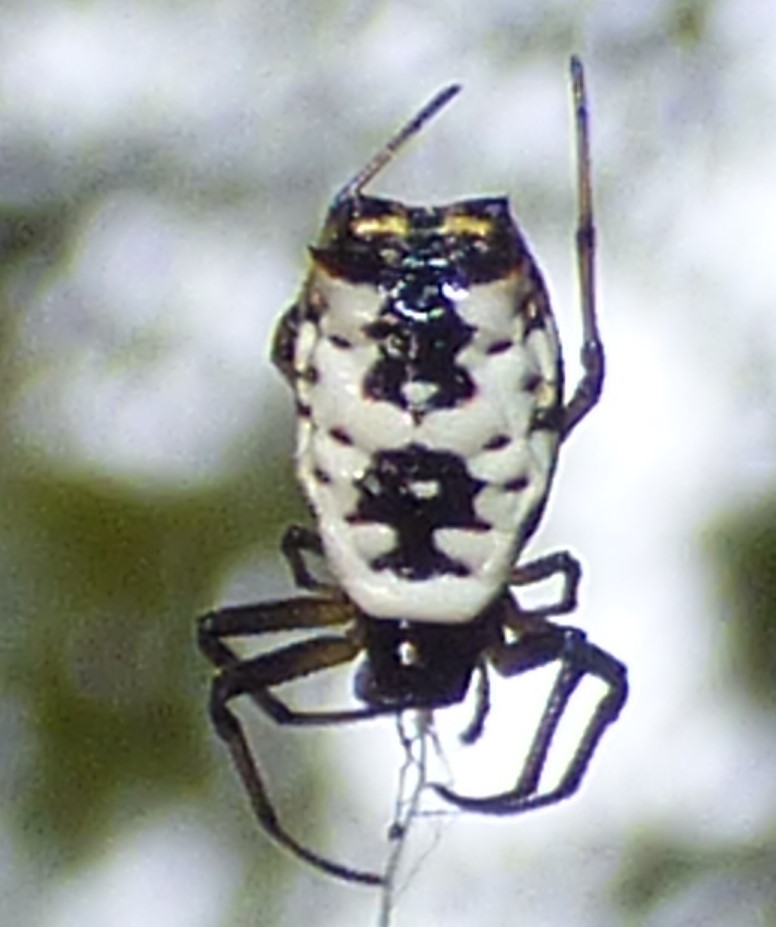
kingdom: Animalia
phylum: Arthropoda
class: Arachnida
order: Araneae
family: Araneidae
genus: Micrathena
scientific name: Micrathena mitrata
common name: Orb weavers
